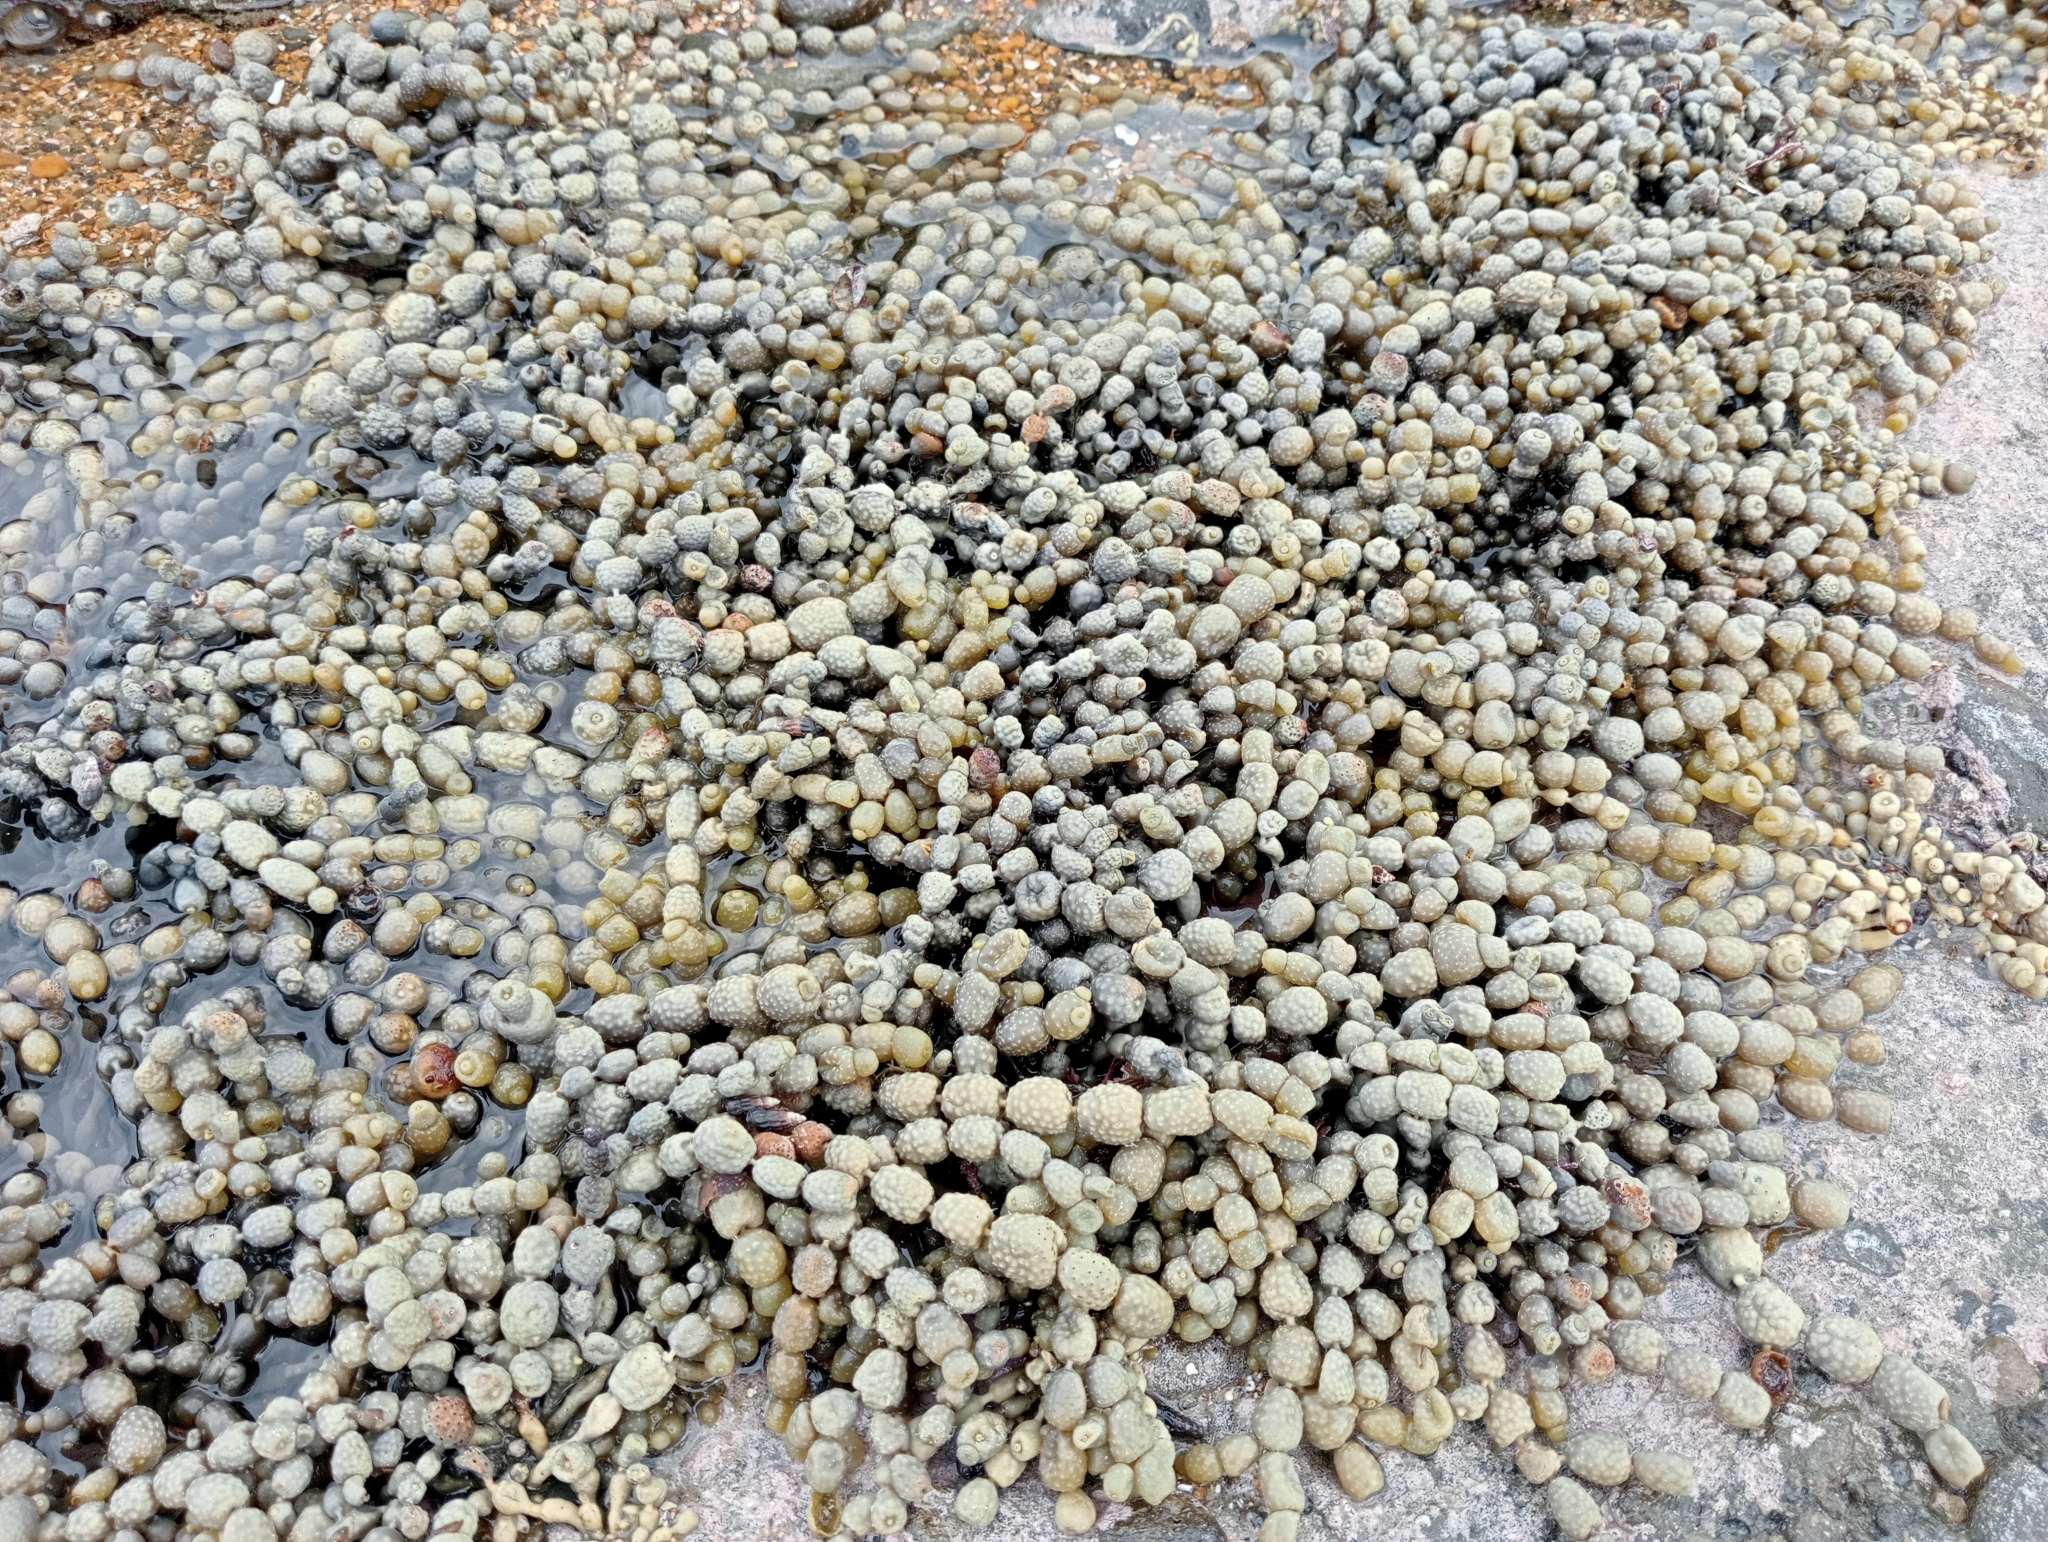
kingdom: Chromista
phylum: Ochrophyta
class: Phaeophyceae
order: Fucales
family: Hormosiraceae
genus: Hormosira
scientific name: Hormosira banksii
